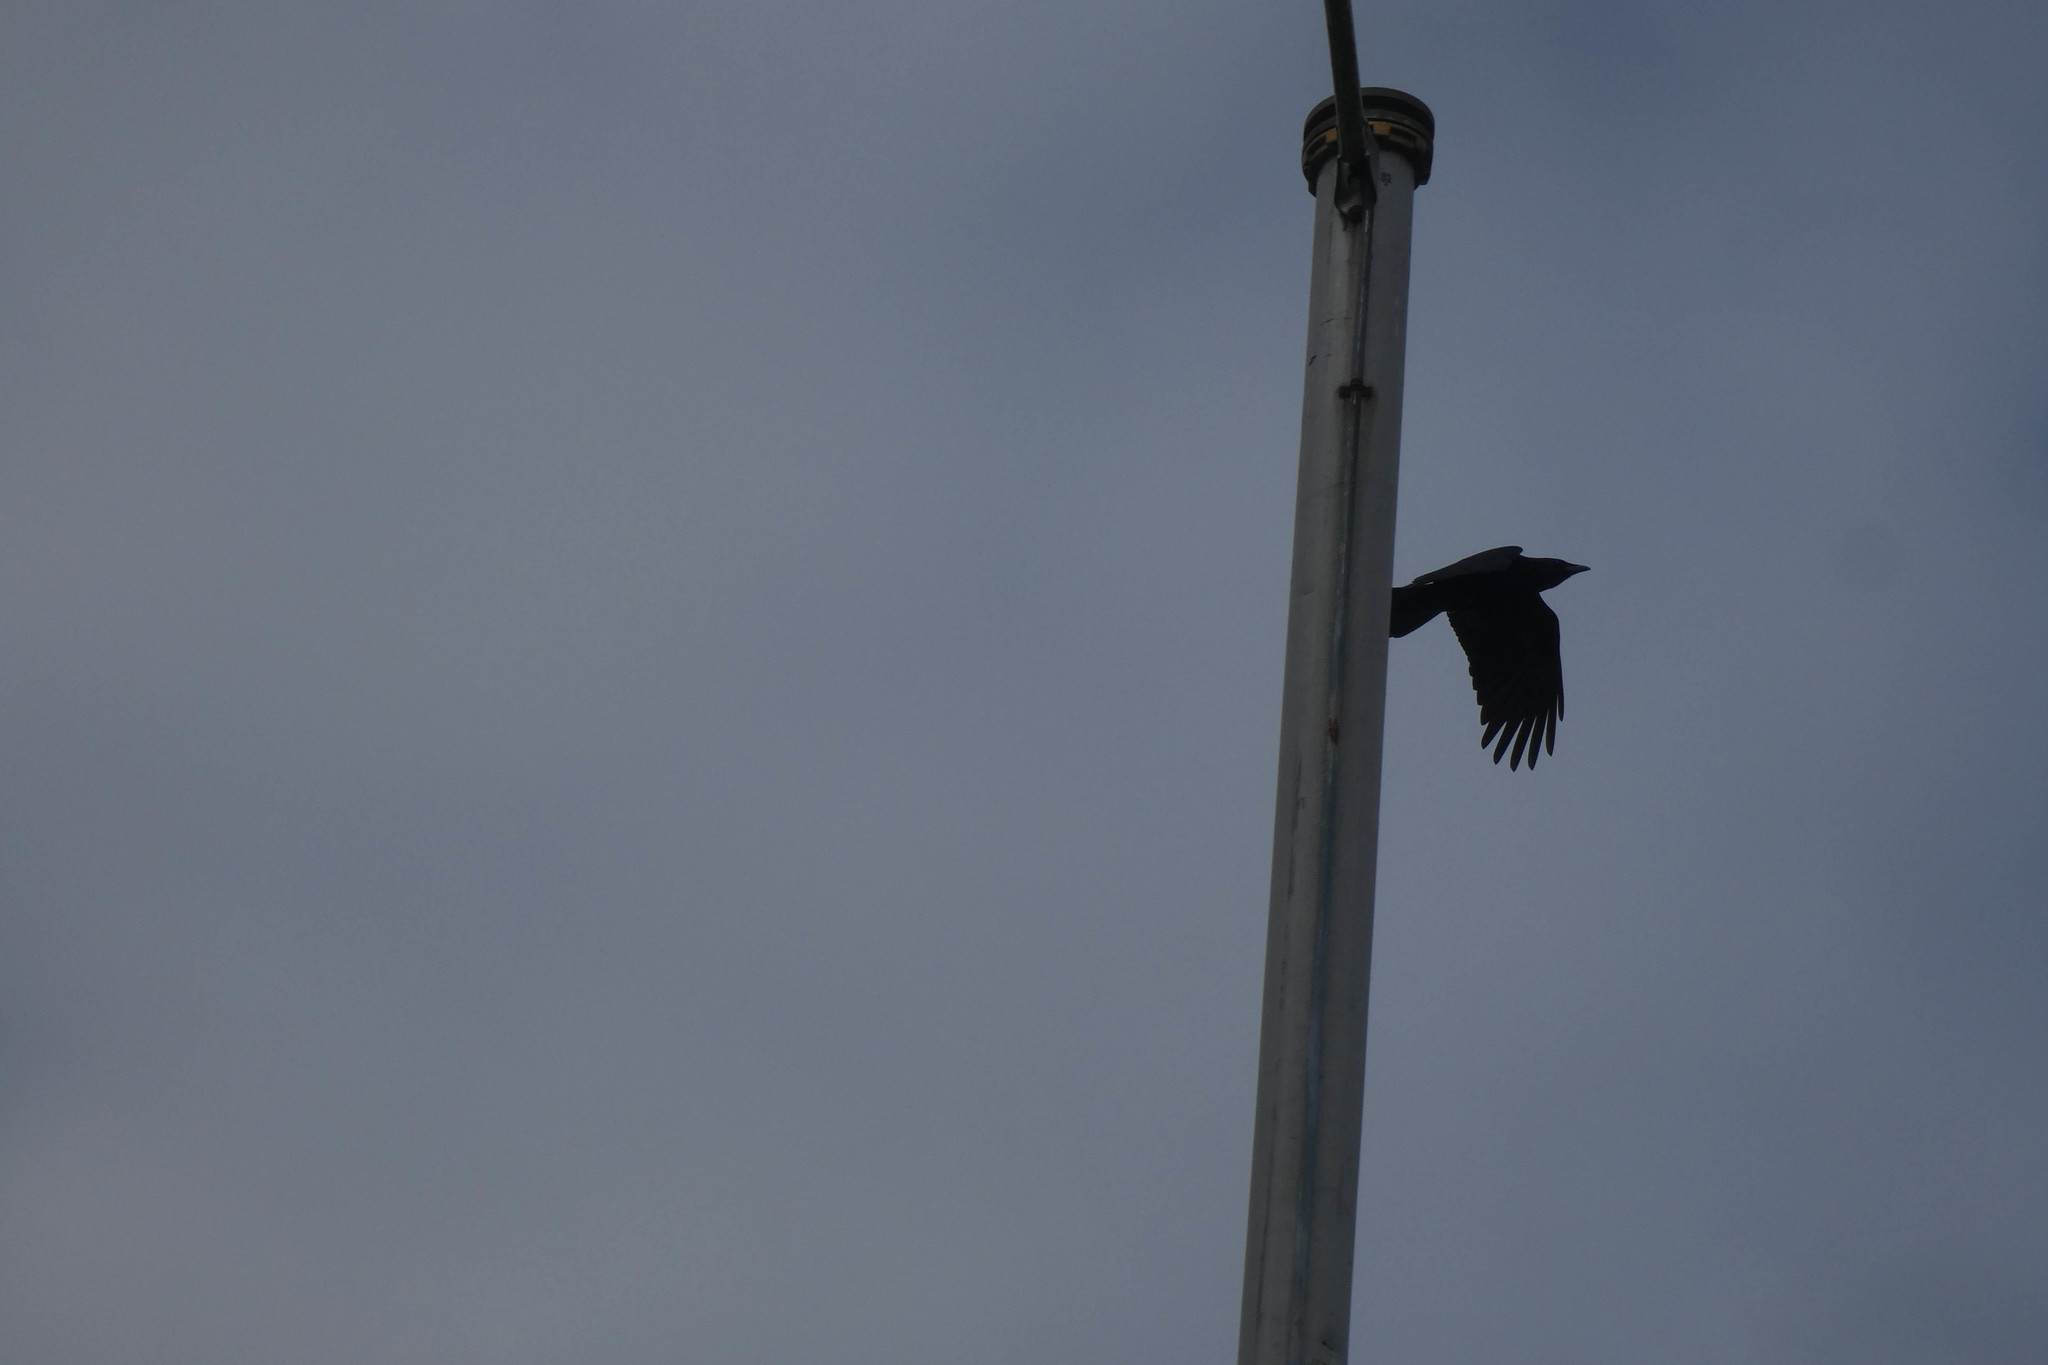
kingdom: Animalia
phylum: Chordata
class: Aves
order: Passeriformes
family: Corvidae
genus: Corvus
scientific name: Corvus brachyrhynchos
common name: American crow
